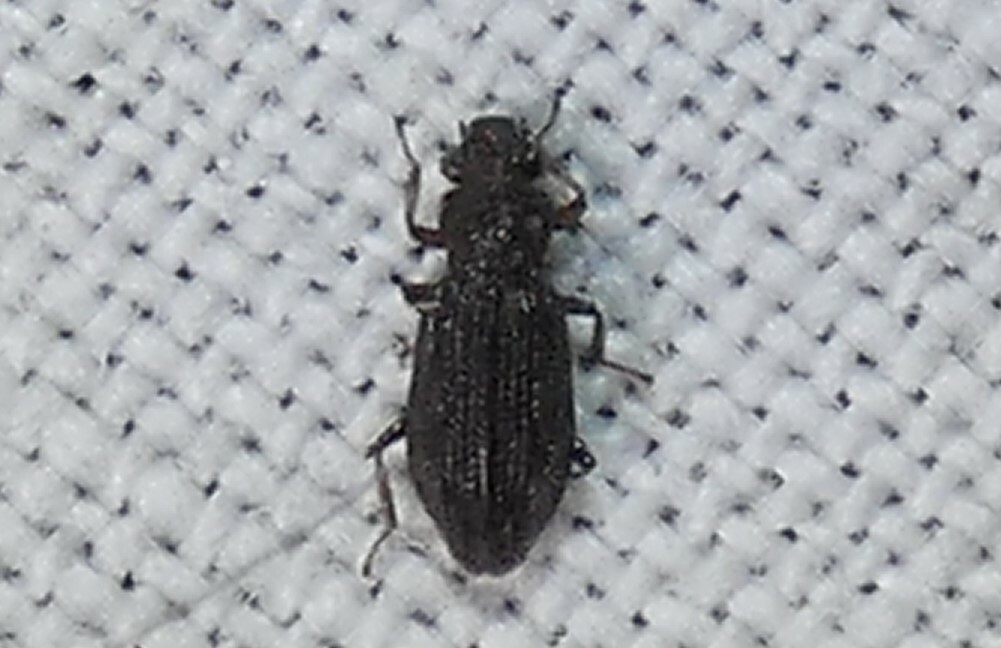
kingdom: Animalia
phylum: Arthropoda
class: Insecta
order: Coleoptera
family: Hydrochidae
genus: Hydrochus
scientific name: Hydrochus
